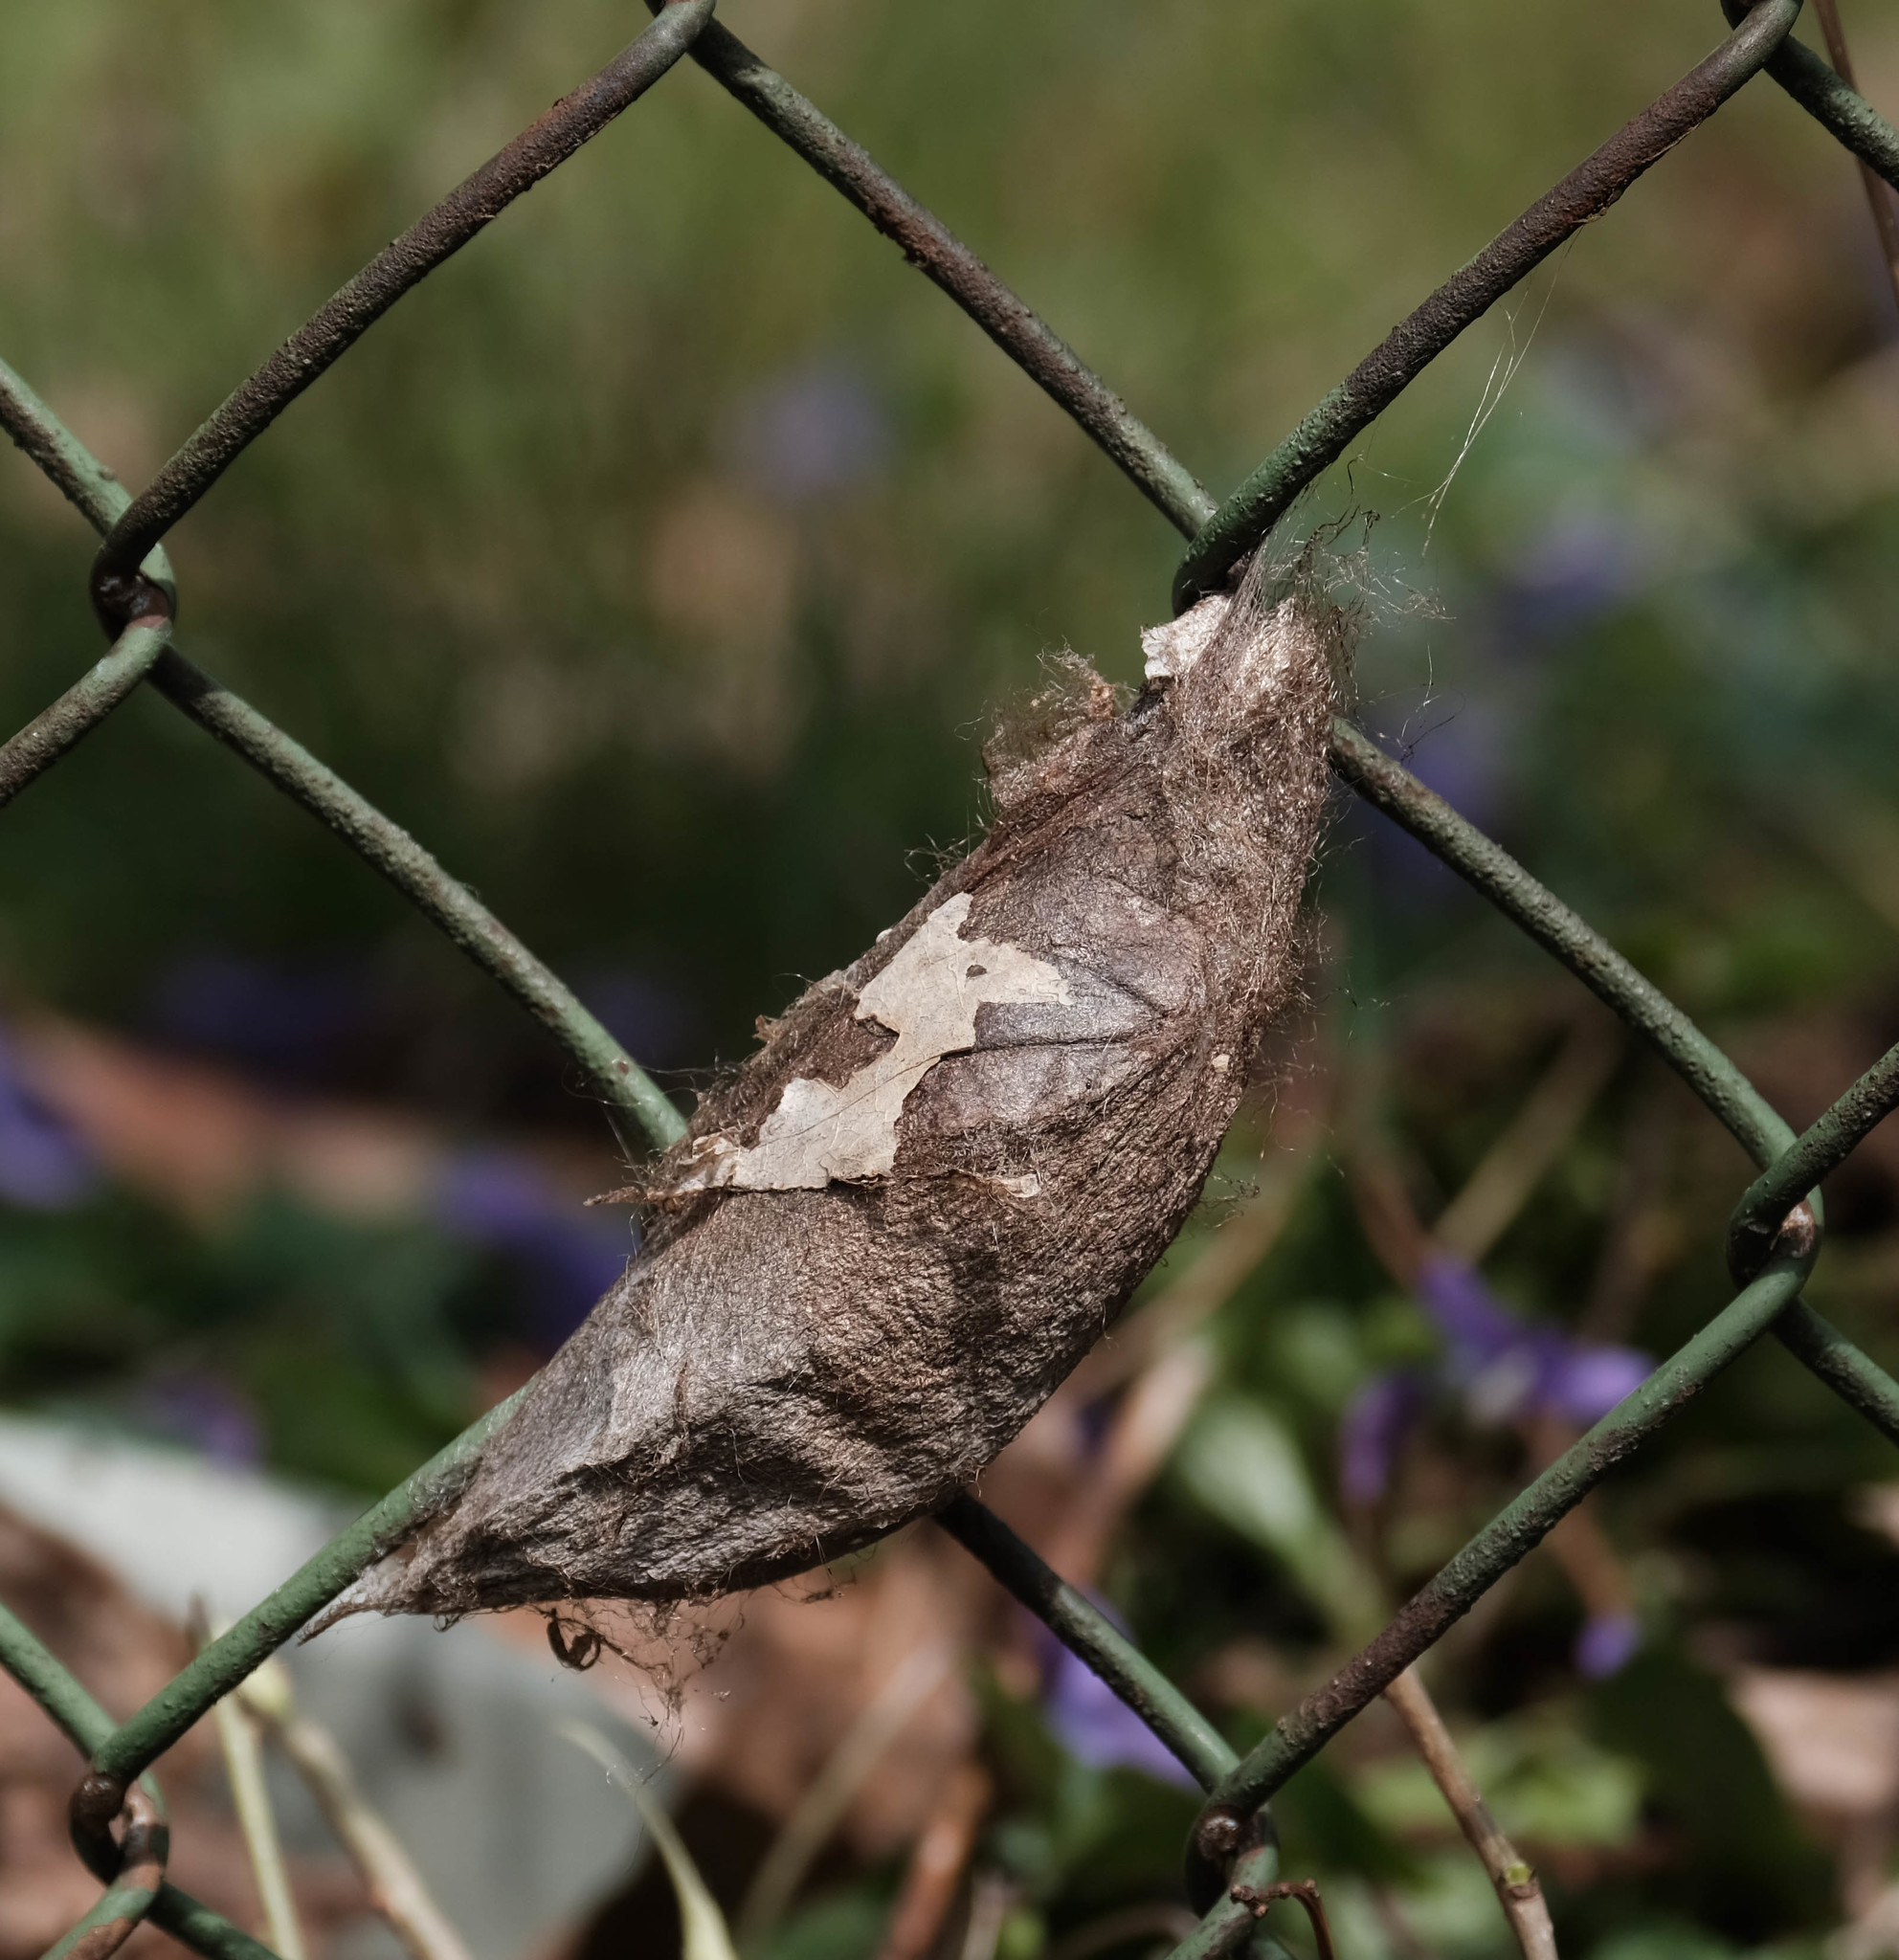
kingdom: Animalia
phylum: Arthropoda
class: Insecta
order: Lepidoptera
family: Saturniidae
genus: Hyalophora
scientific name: Hyalophora cecropia
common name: Cecropia silkmoth
